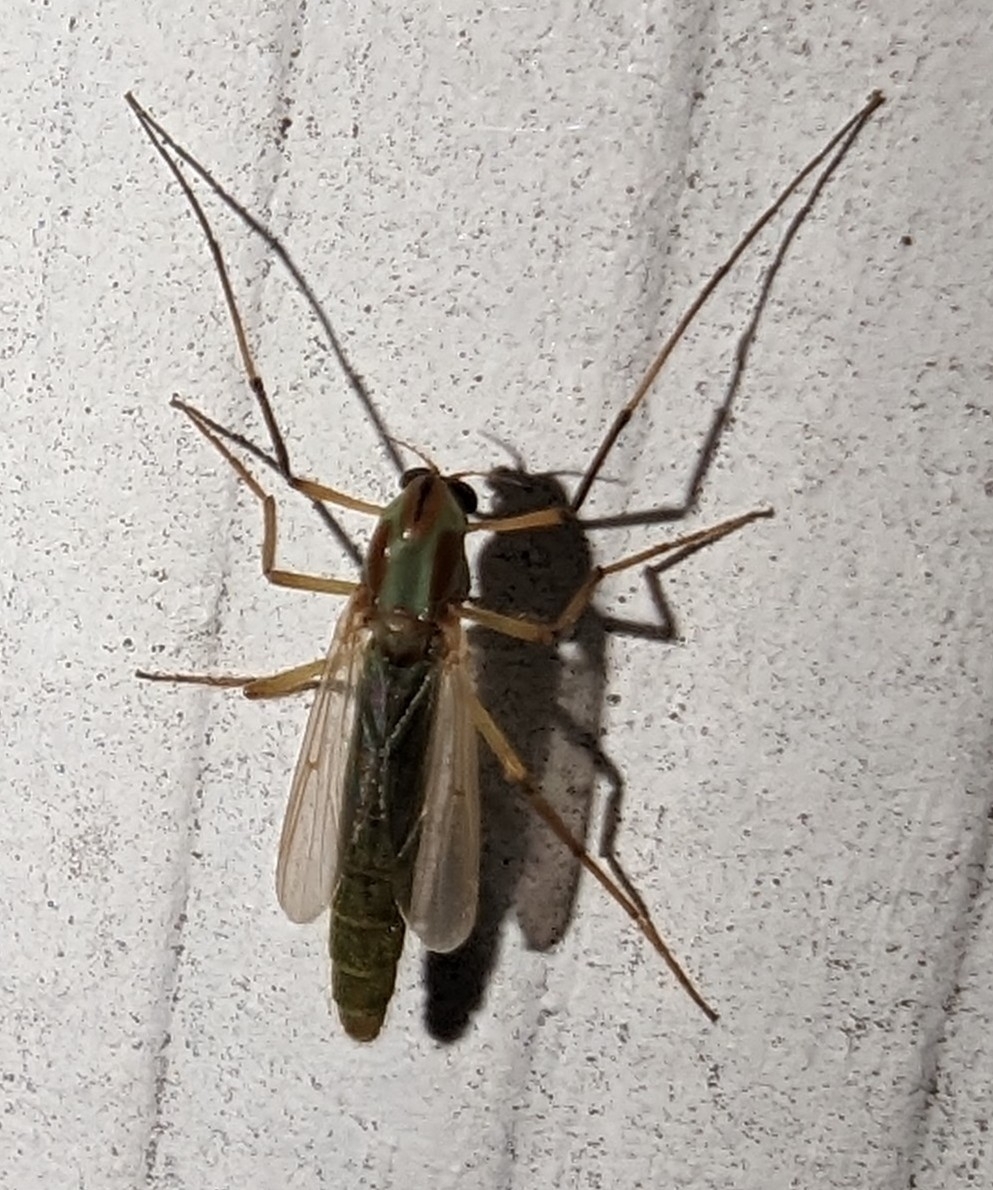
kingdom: Animalia
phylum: Arthropoda
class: Insecta
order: Diptera
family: Chironomidae
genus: Axarus
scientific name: Axarus
